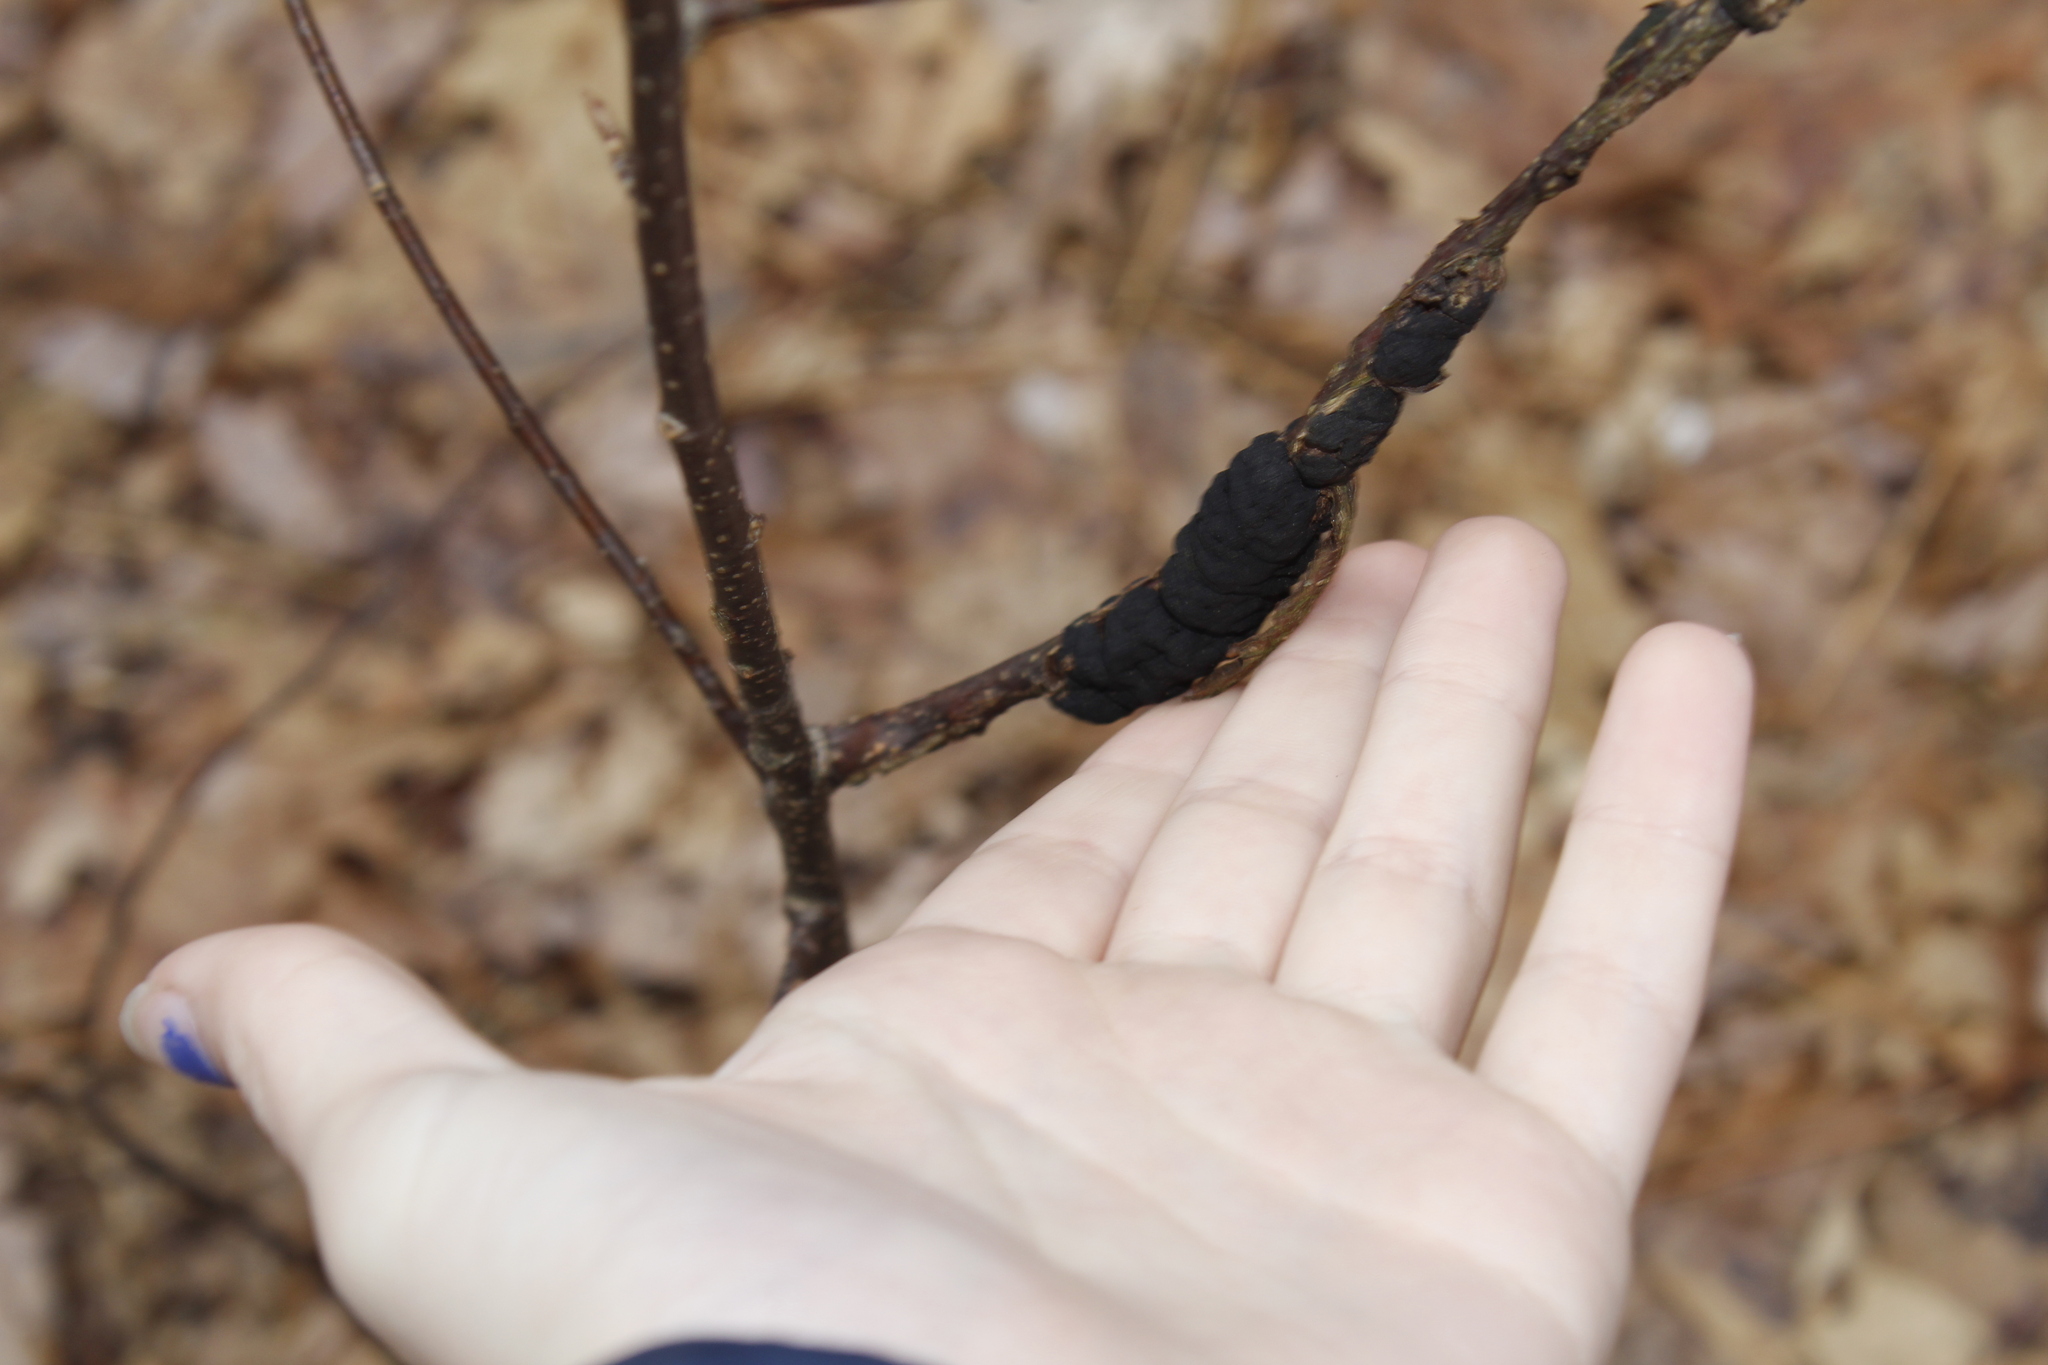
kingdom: Fungi
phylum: Ascomycota
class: Dothideomycetes
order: Venturiales
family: Venturiaceae
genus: Apiosporina
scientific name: Apiosporina morbosa
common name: Black knot
